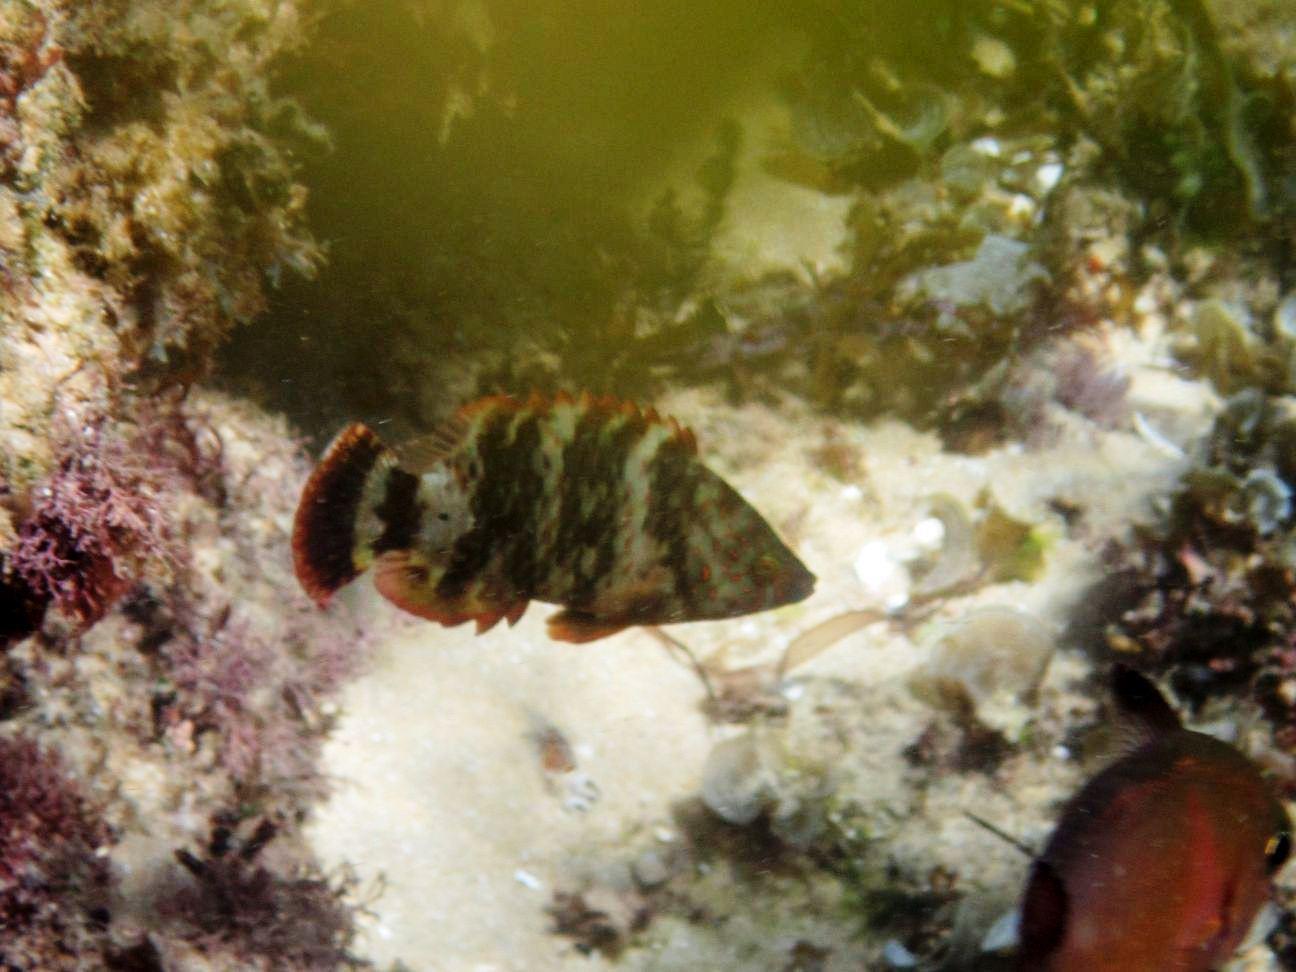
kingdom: Animalia
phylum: Chordata
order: Perciformes
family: Labridae
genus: Cheilinus
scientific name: Cheilinus trilobatus
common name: Tripletail maori wrasse
